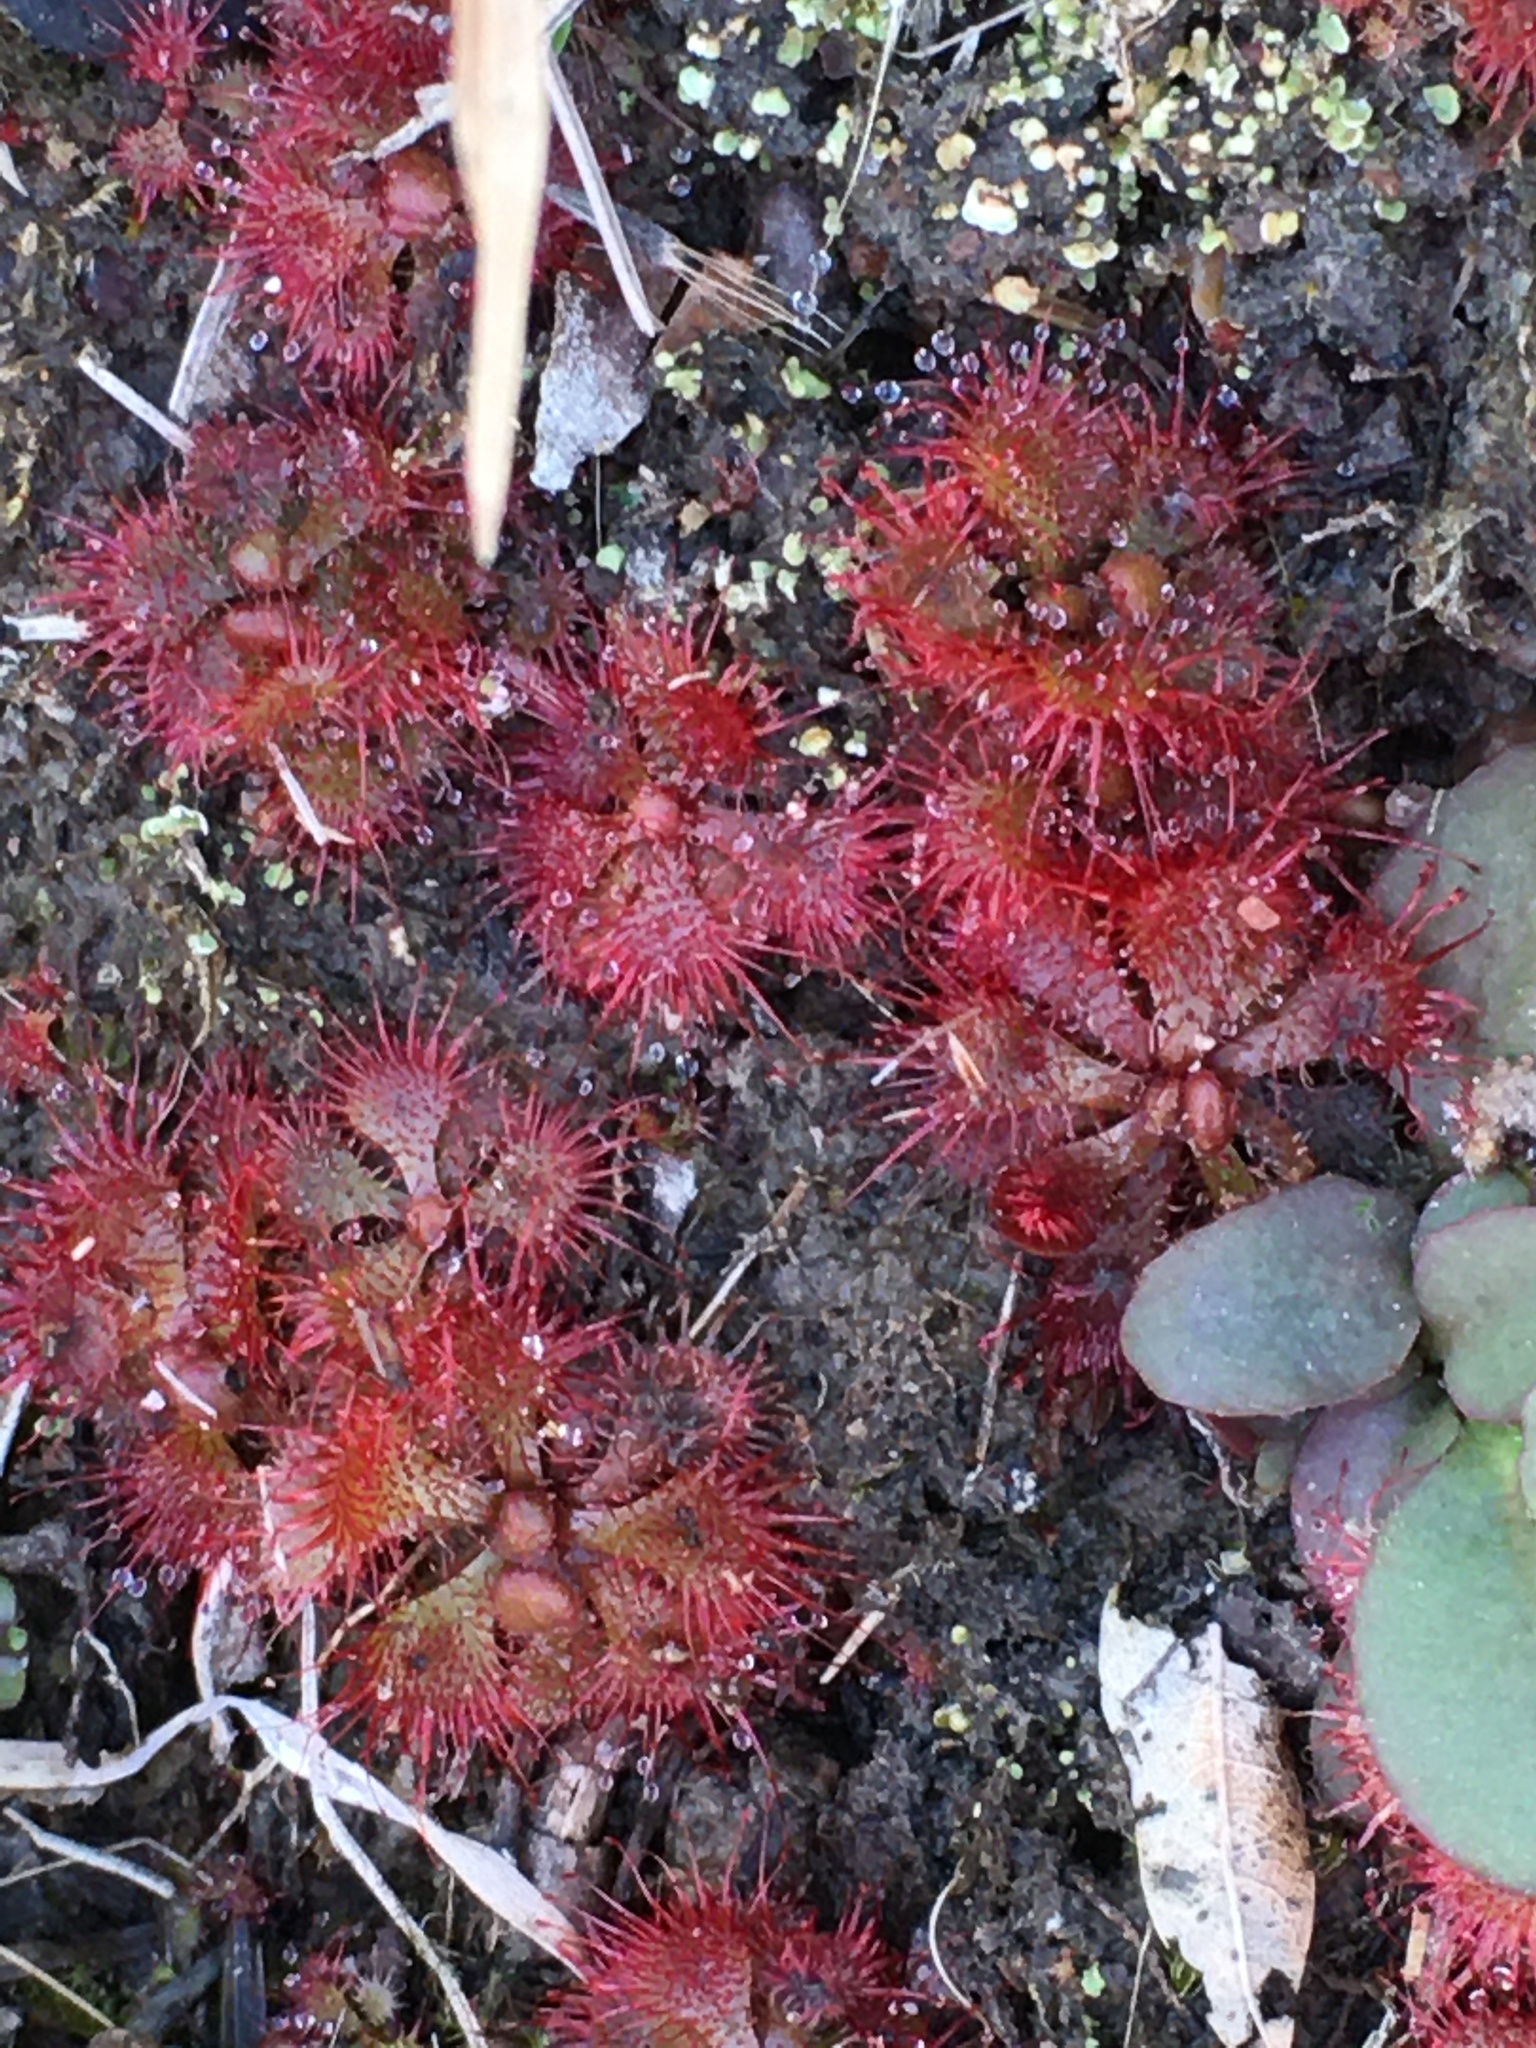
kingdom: Plantae
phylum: Tracheophyta
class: Magnoliopsida
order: Caryophyllales
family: Droseraceae
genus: Drosera
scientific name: Drosera brevifolia
